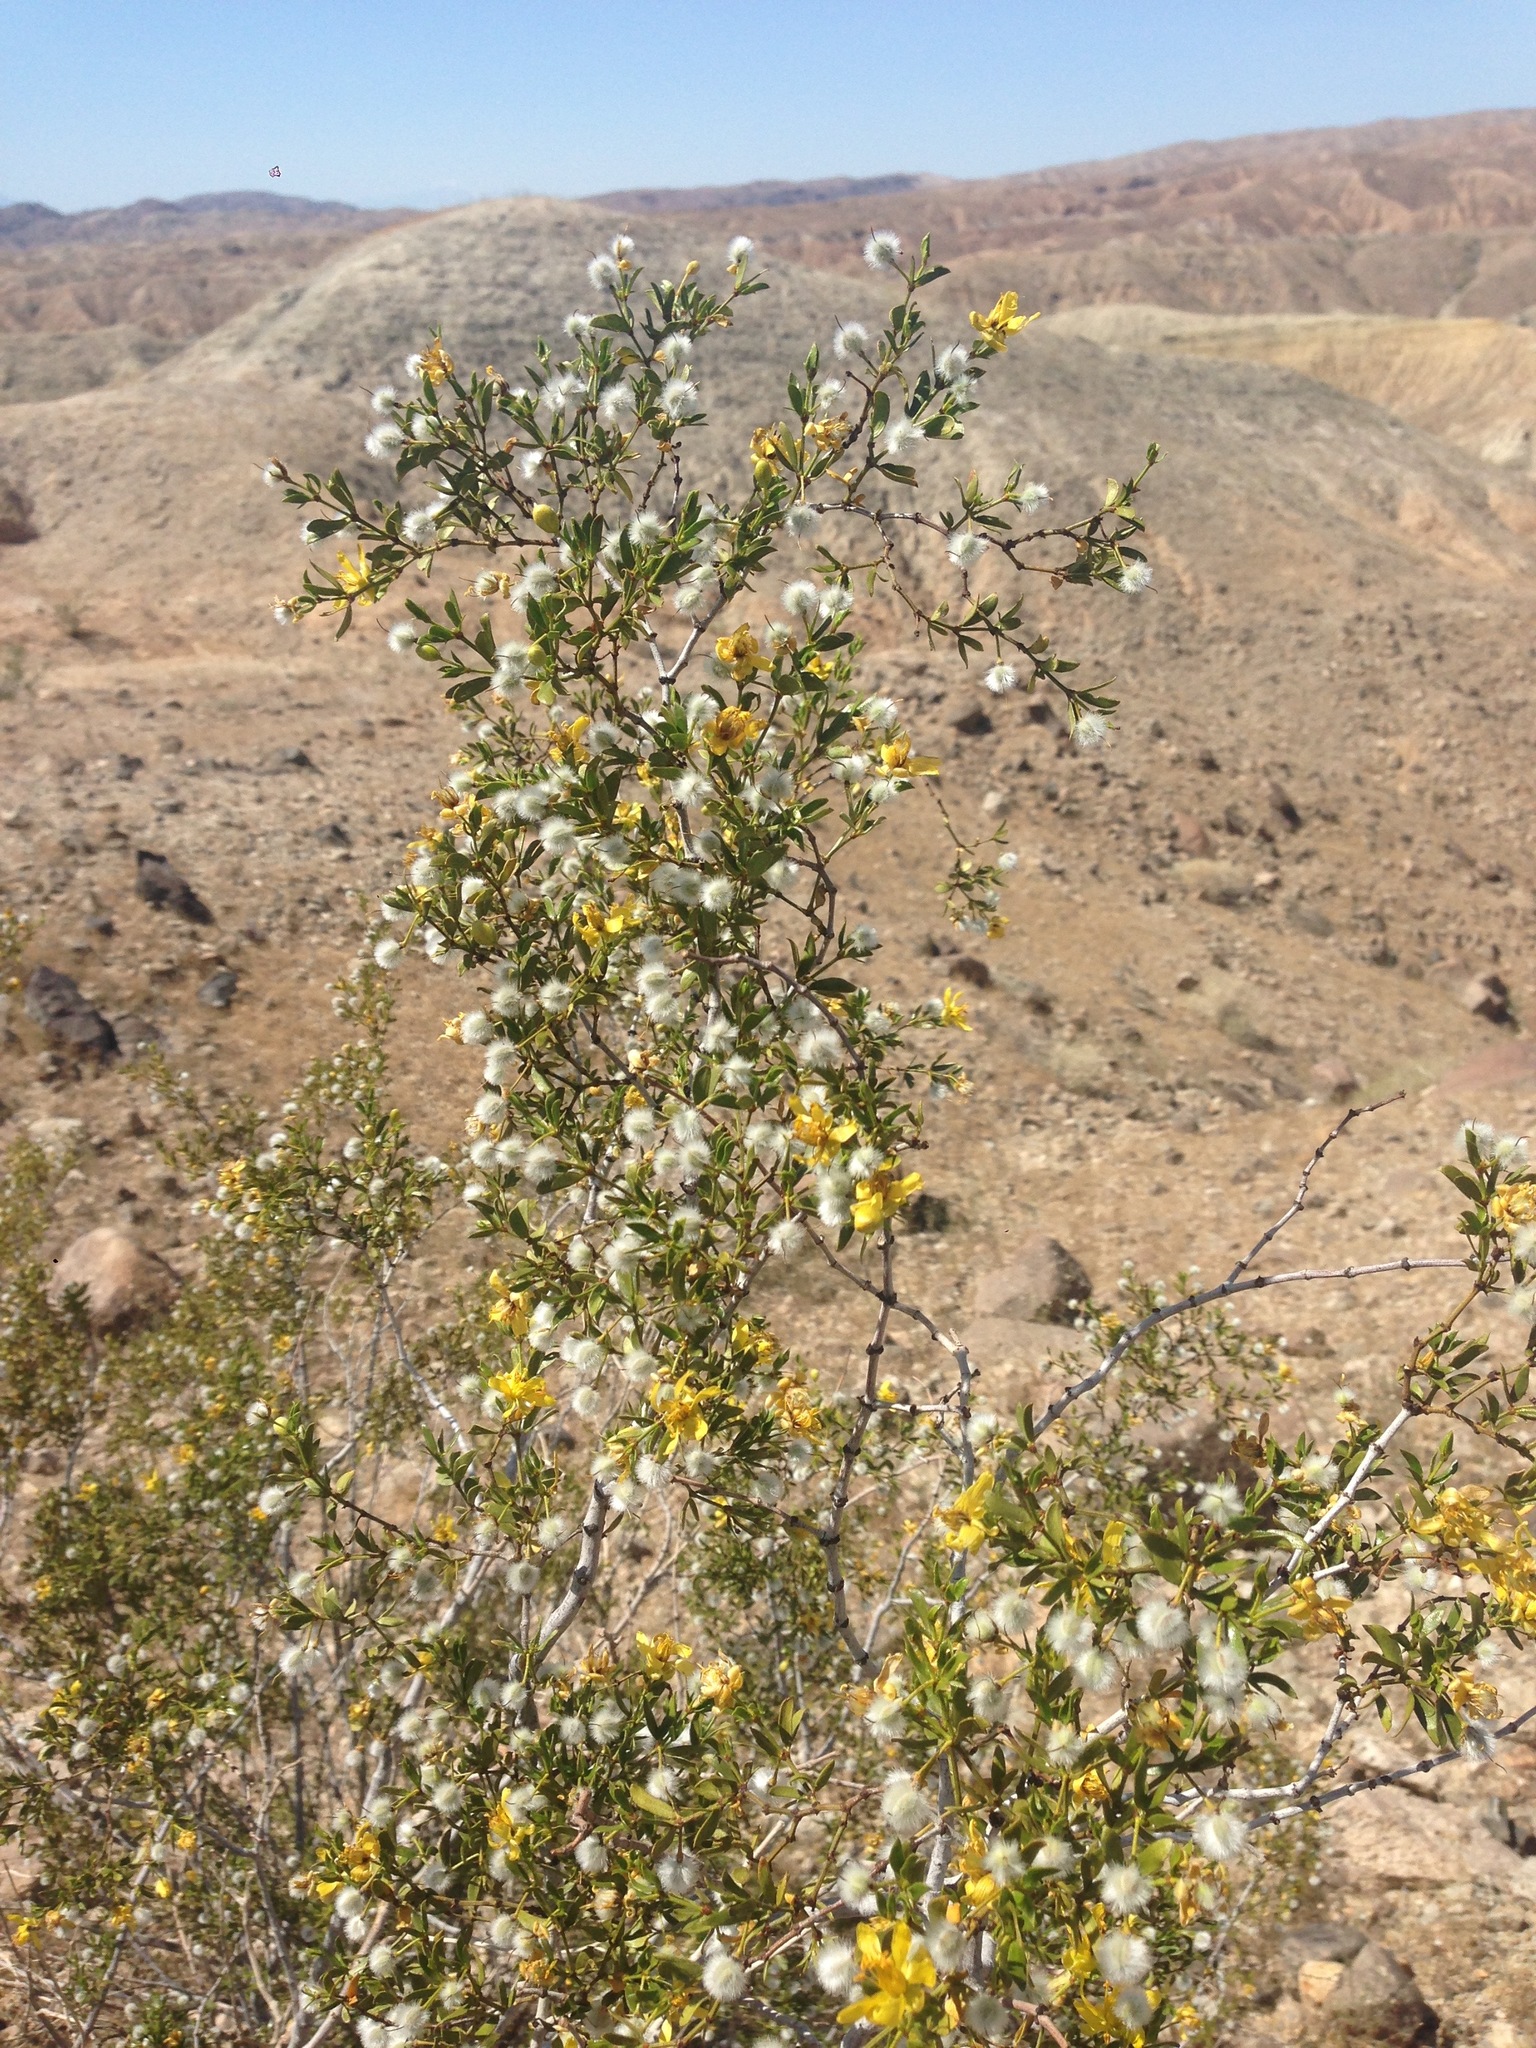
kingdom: Plantae
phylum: Tracheophyta
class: Magnoliopsida
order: Zygophyllales
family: Zygophyllaceae
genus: Larrea
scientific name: Larrea tridentata
